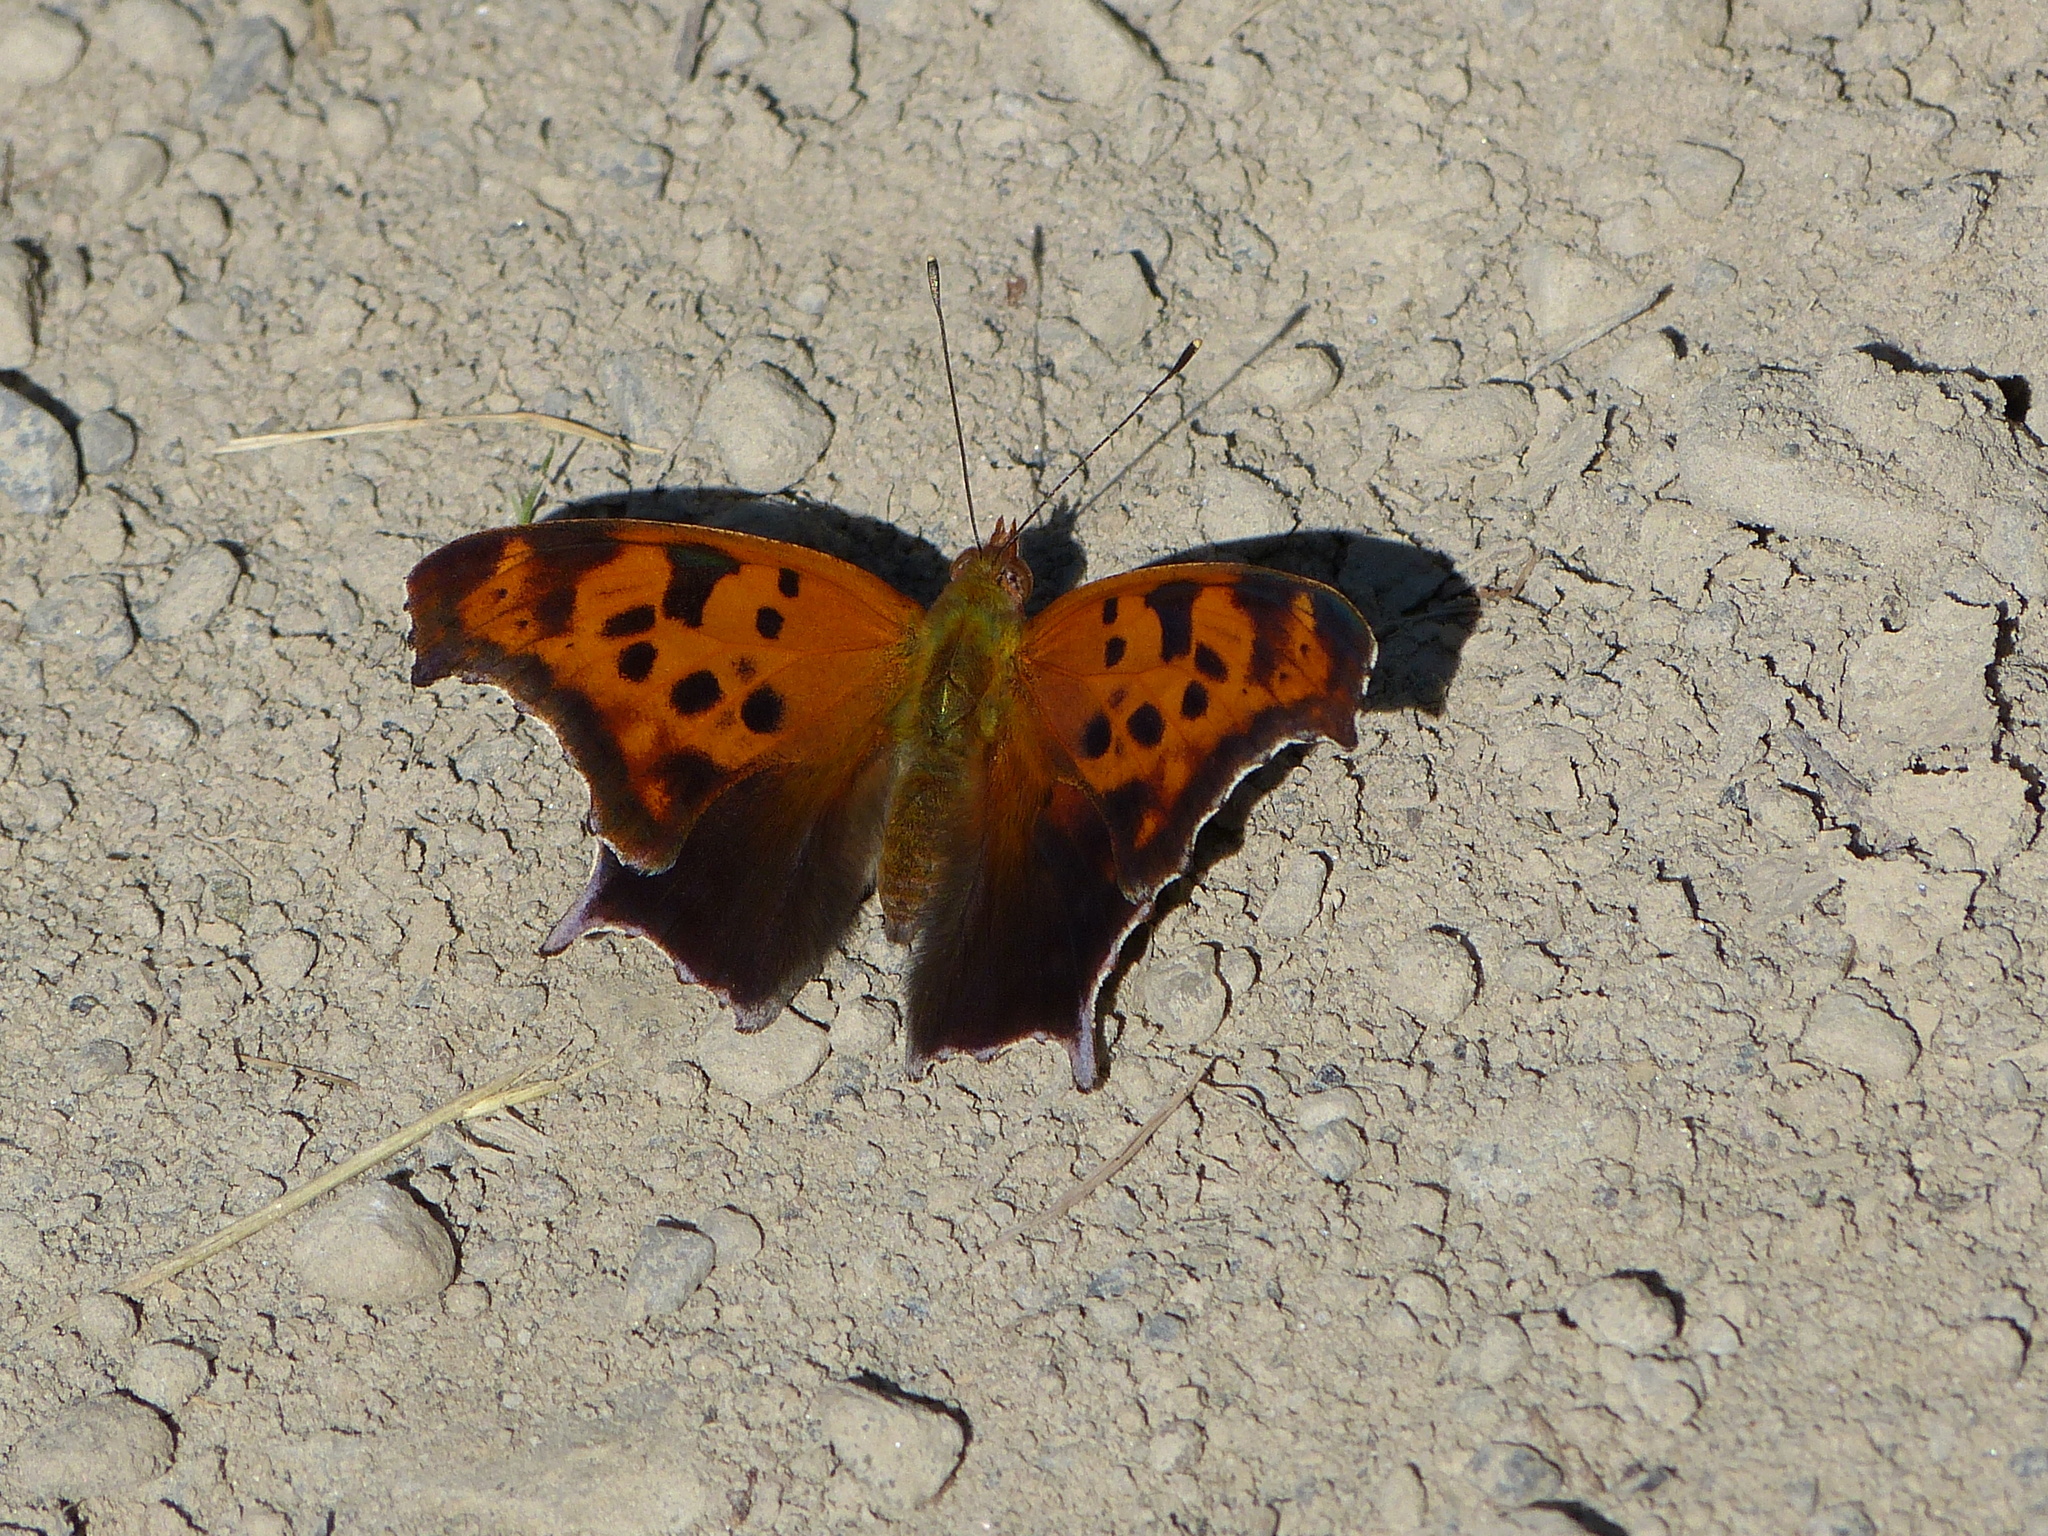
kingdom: Animalia
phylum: Arthropoda
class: Insecta
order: Lepidoptera
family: Nymphalidae
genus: Polygonia
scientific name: Polygonia interrogationis
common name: Question mark
